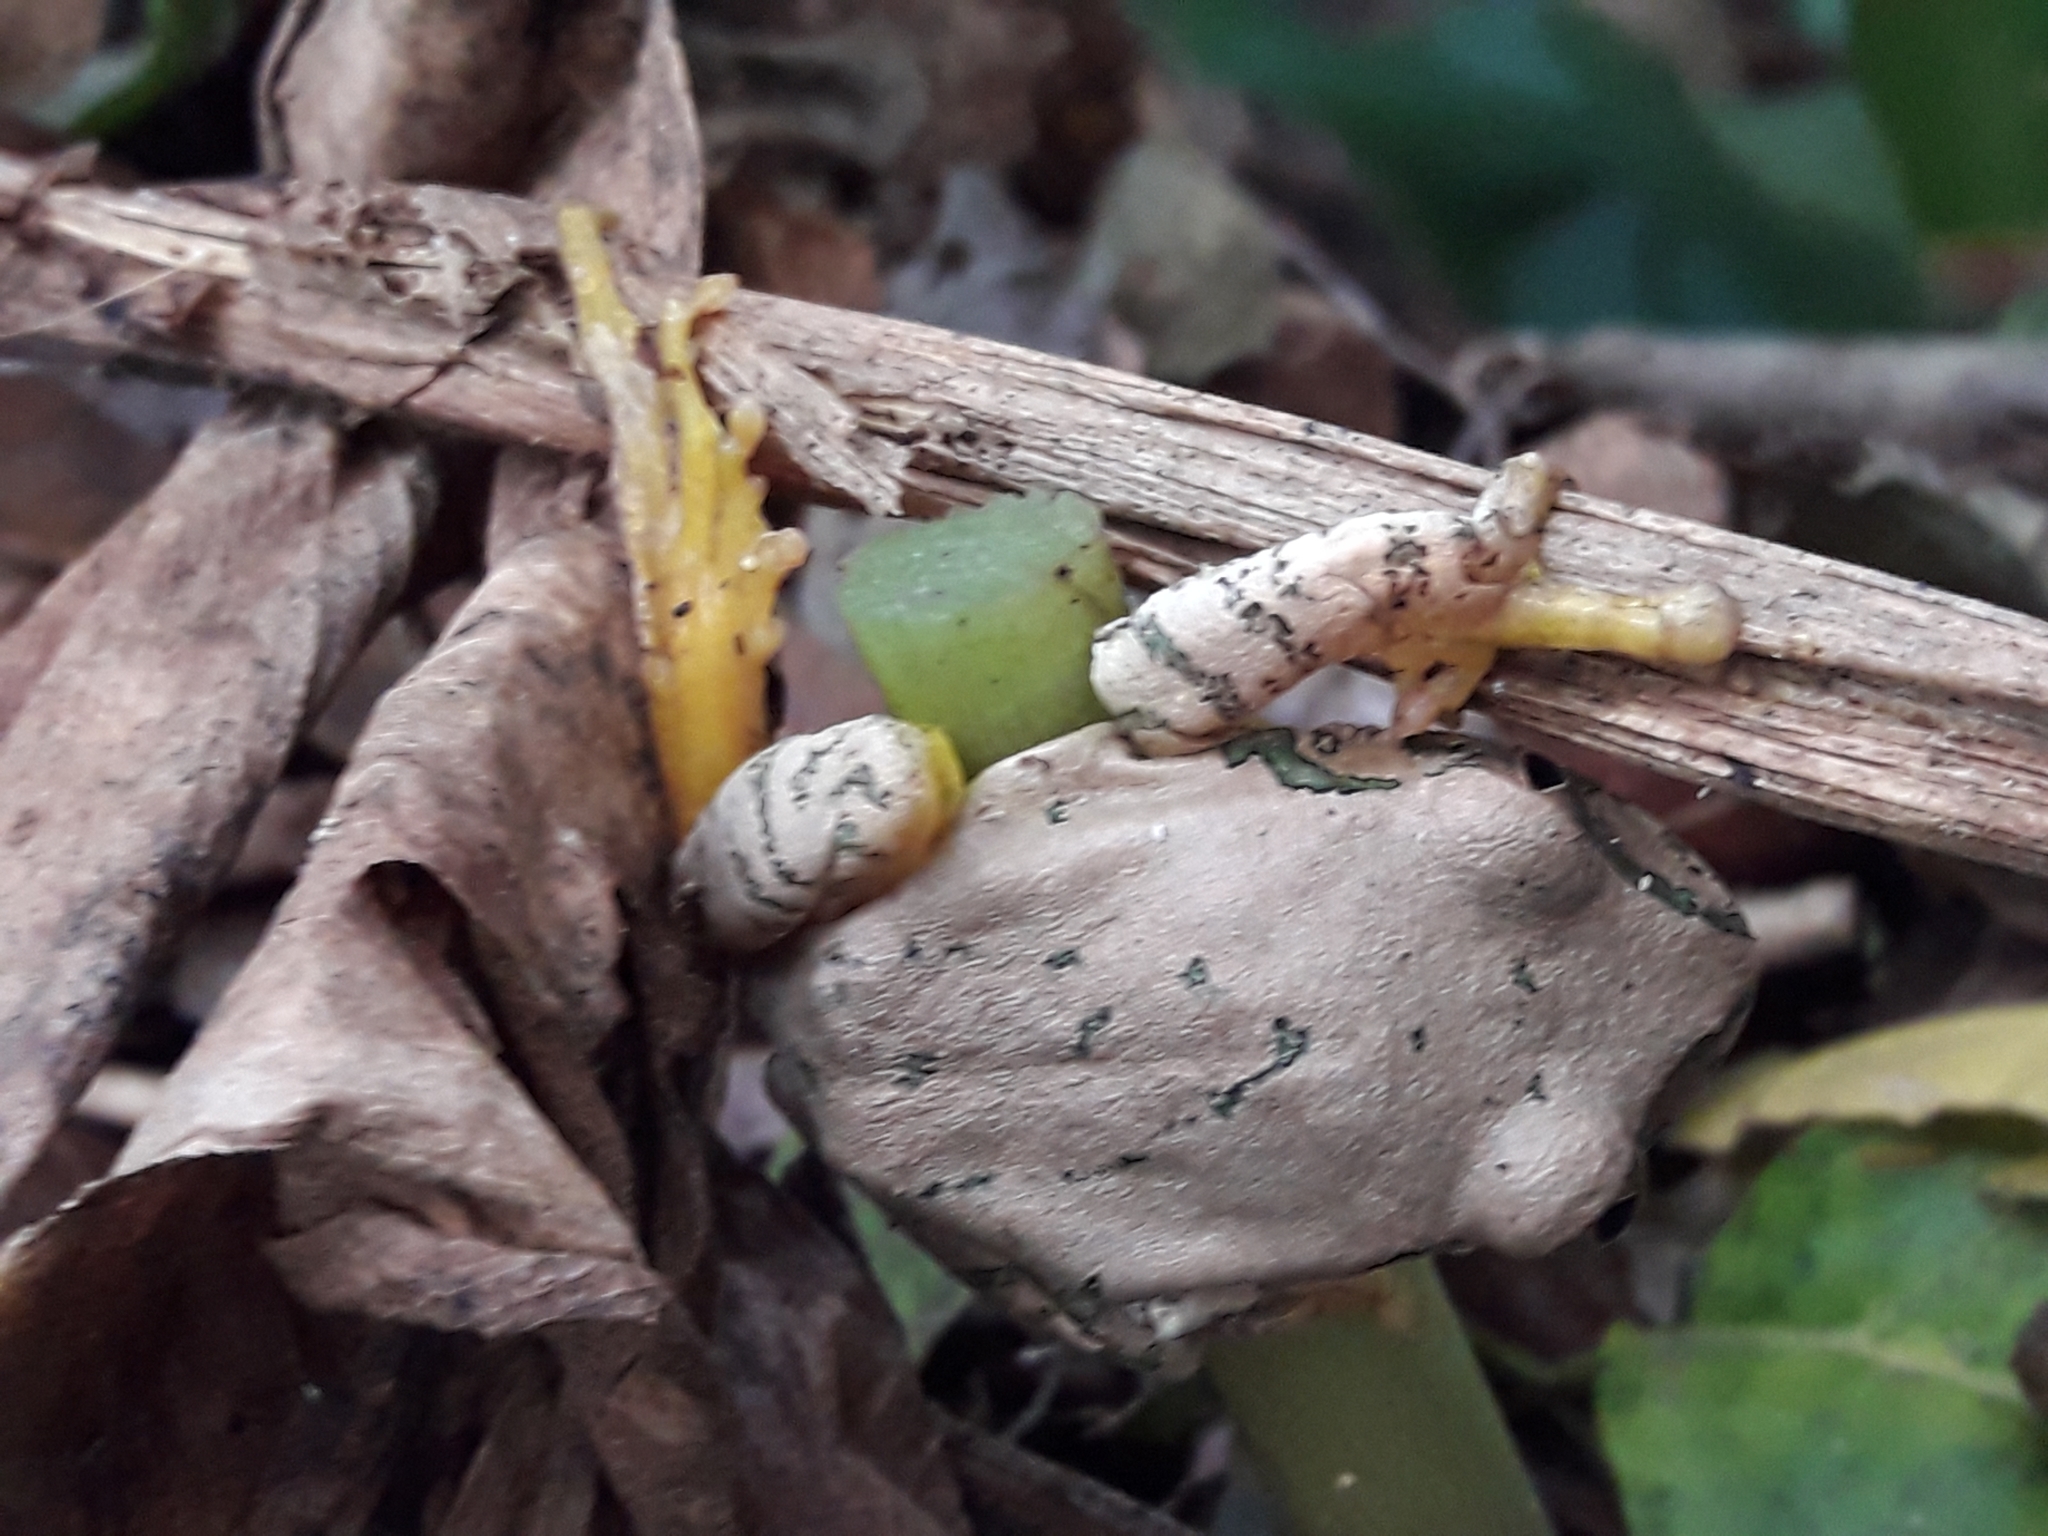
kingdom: Animalia
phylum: Chordata
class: Amphibia
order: Anura
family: Arthroleptidae
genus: Leptopelis
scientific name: Leptopelis natalensis
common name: Natal tree frog
